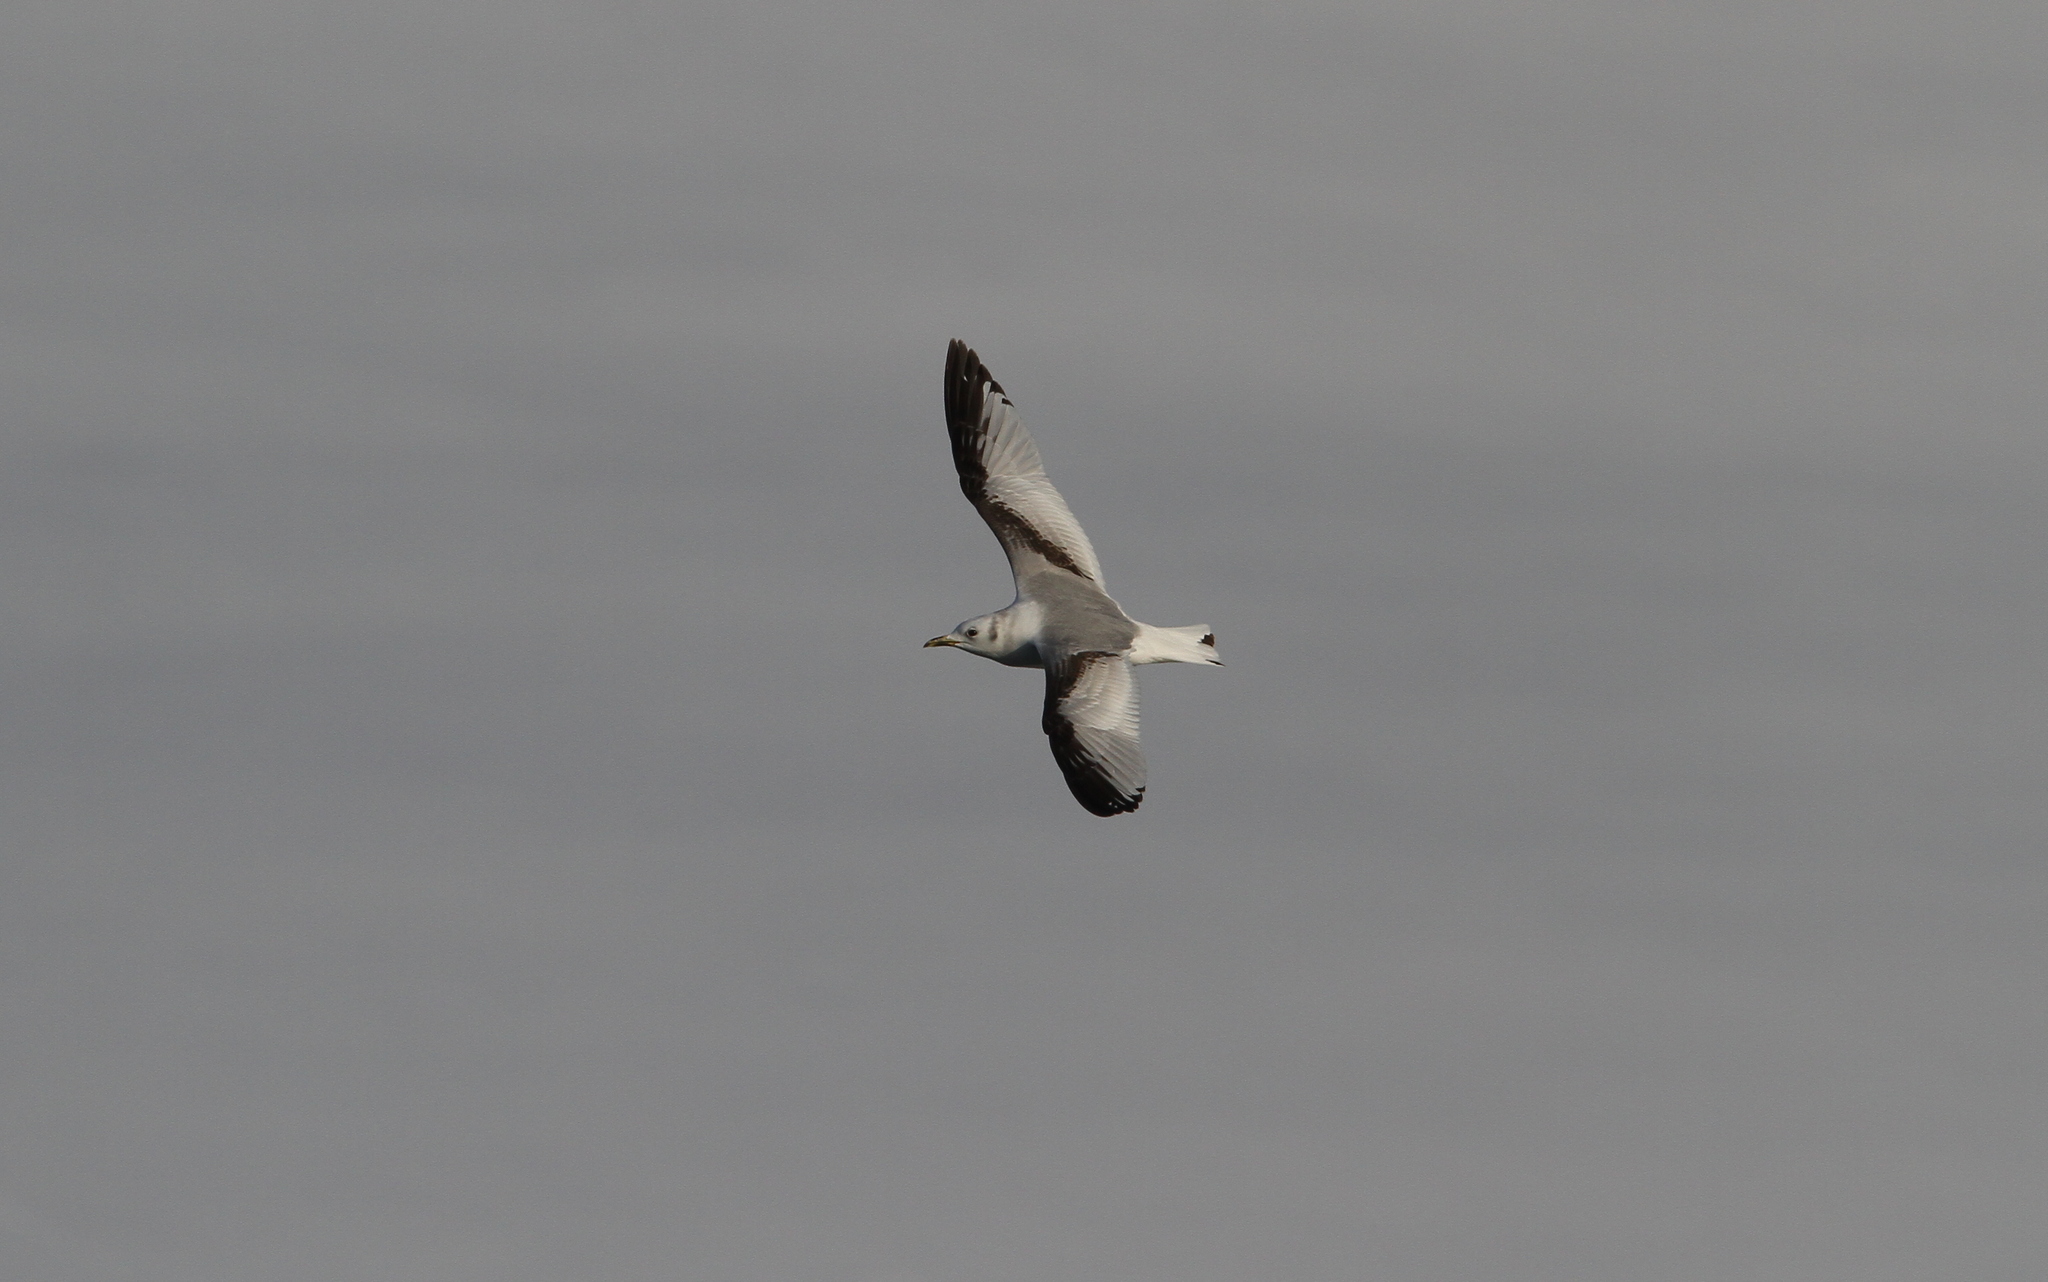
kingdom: Animalia
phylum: Chordata
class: Aves
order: Charadriiformes
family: Laridae
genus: Rissa
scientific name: Rissa tridactyla
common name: Black-legged kittiwake
